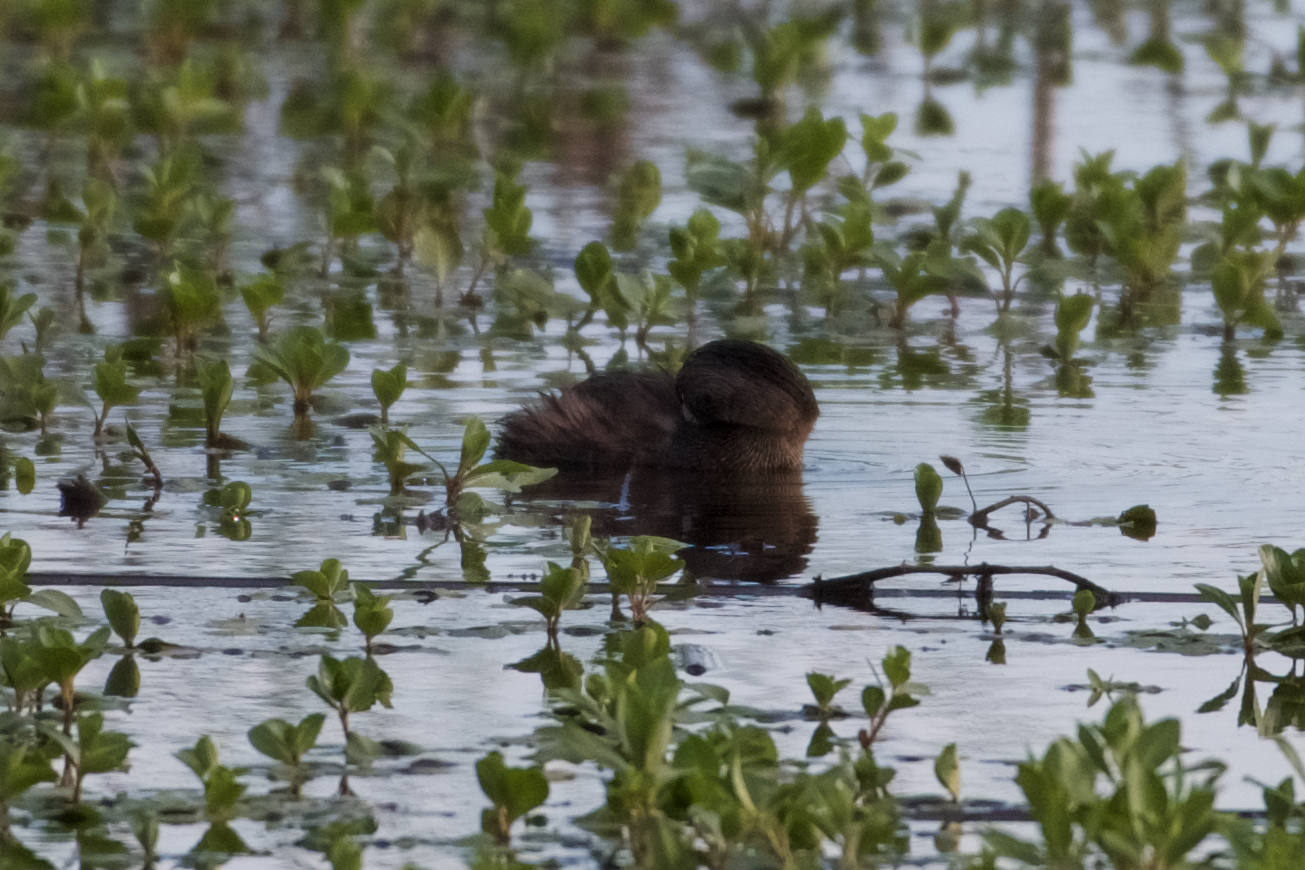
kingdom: Animalia
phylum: Chordata
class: Aves
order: Podicipediformes
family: Podicipedidae
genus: Podilymbus
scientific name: Podilymbus podiceps
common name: Pied-billed grebe
